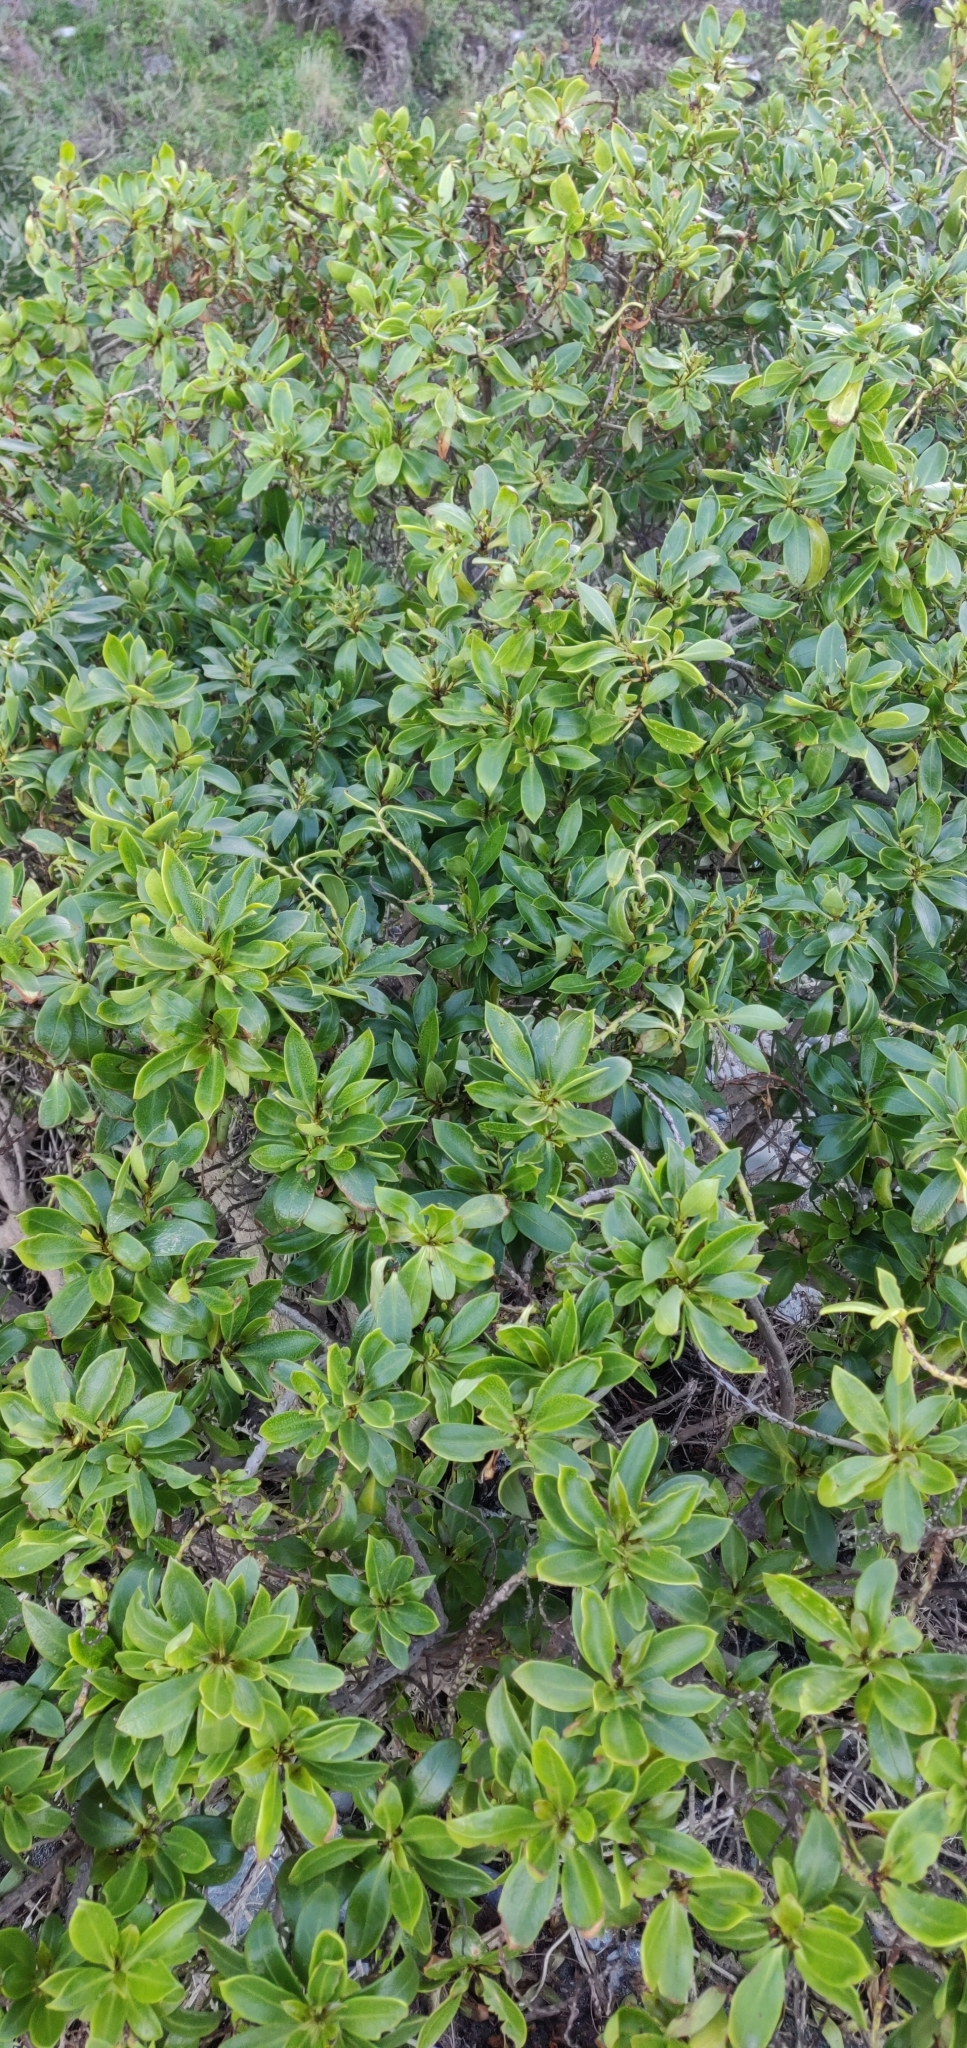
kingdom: Plantae
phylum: Tracheophyta
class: Magnoliopsida
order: Lamiales
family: Scrophulariaceae
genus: Myoporum
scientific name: Myoporum laetum
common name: Ngaio tree
